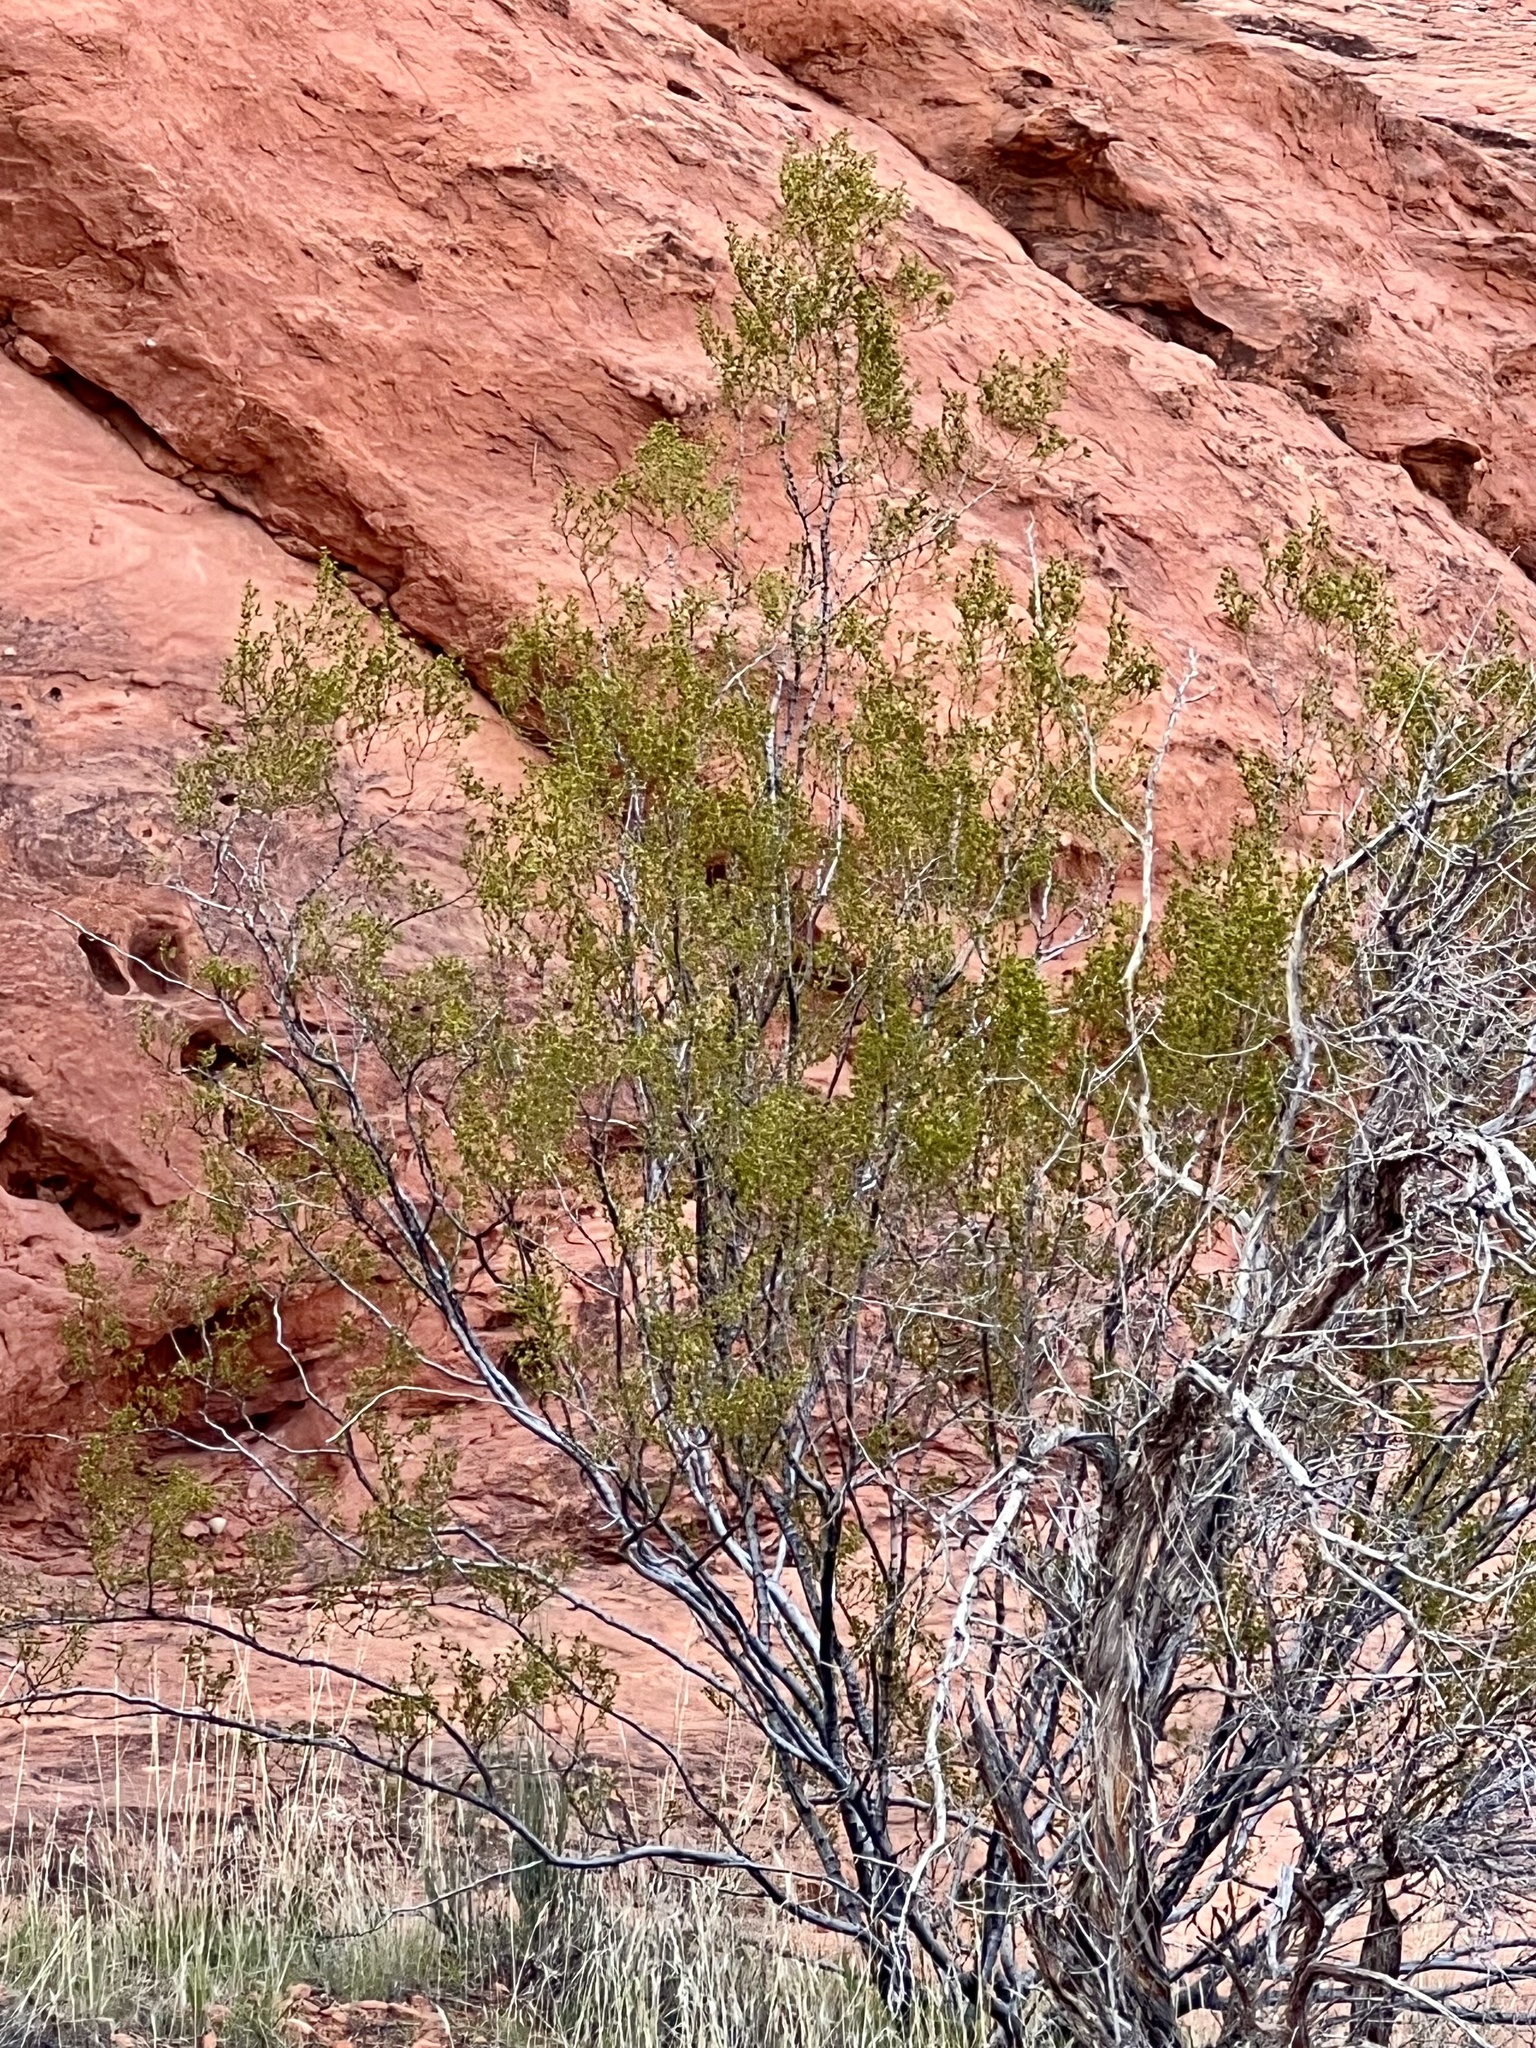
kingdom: Plantae
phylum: Tracheophyta
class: Magnoliopsida
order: Zygophyllales
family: Zygophyllaceae
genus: Larrea
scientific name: Larrea tridentata
